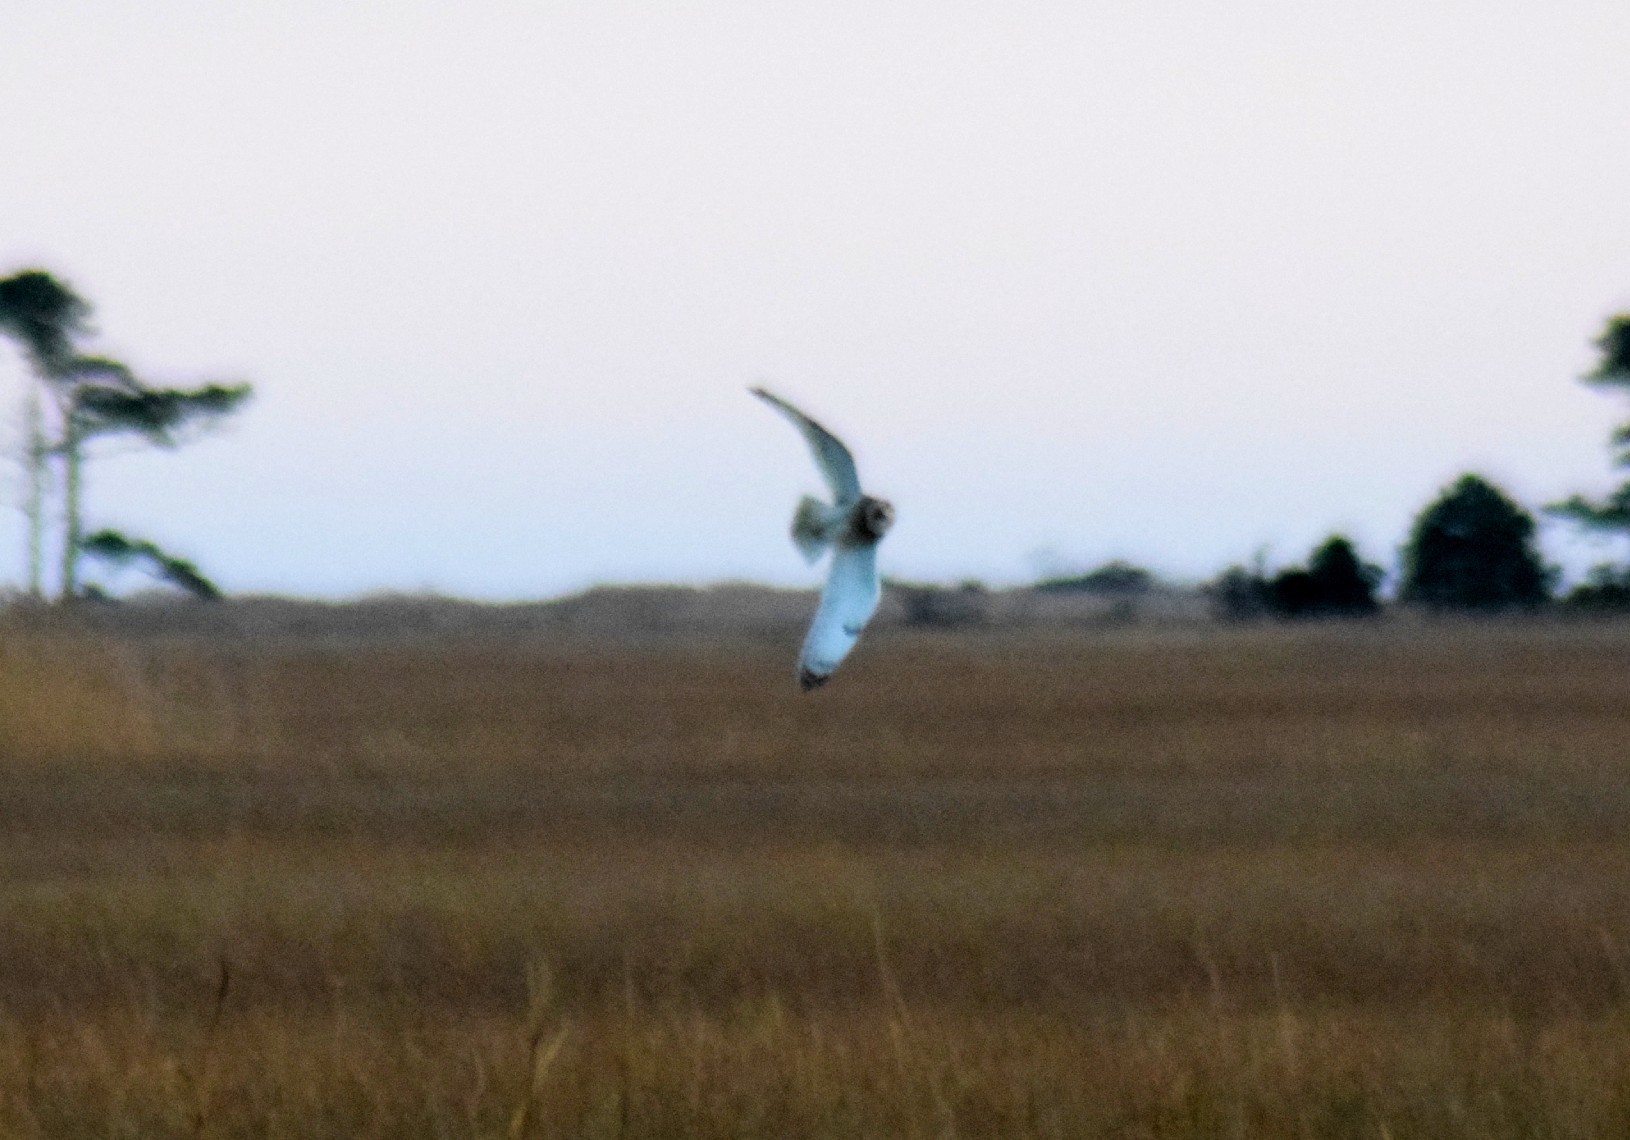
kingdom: Animalia
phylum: Chordata
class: Aves
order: Strigiformes
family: Strigidae
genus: Asio
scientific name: Asio flammeus
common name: Short-eared owl
